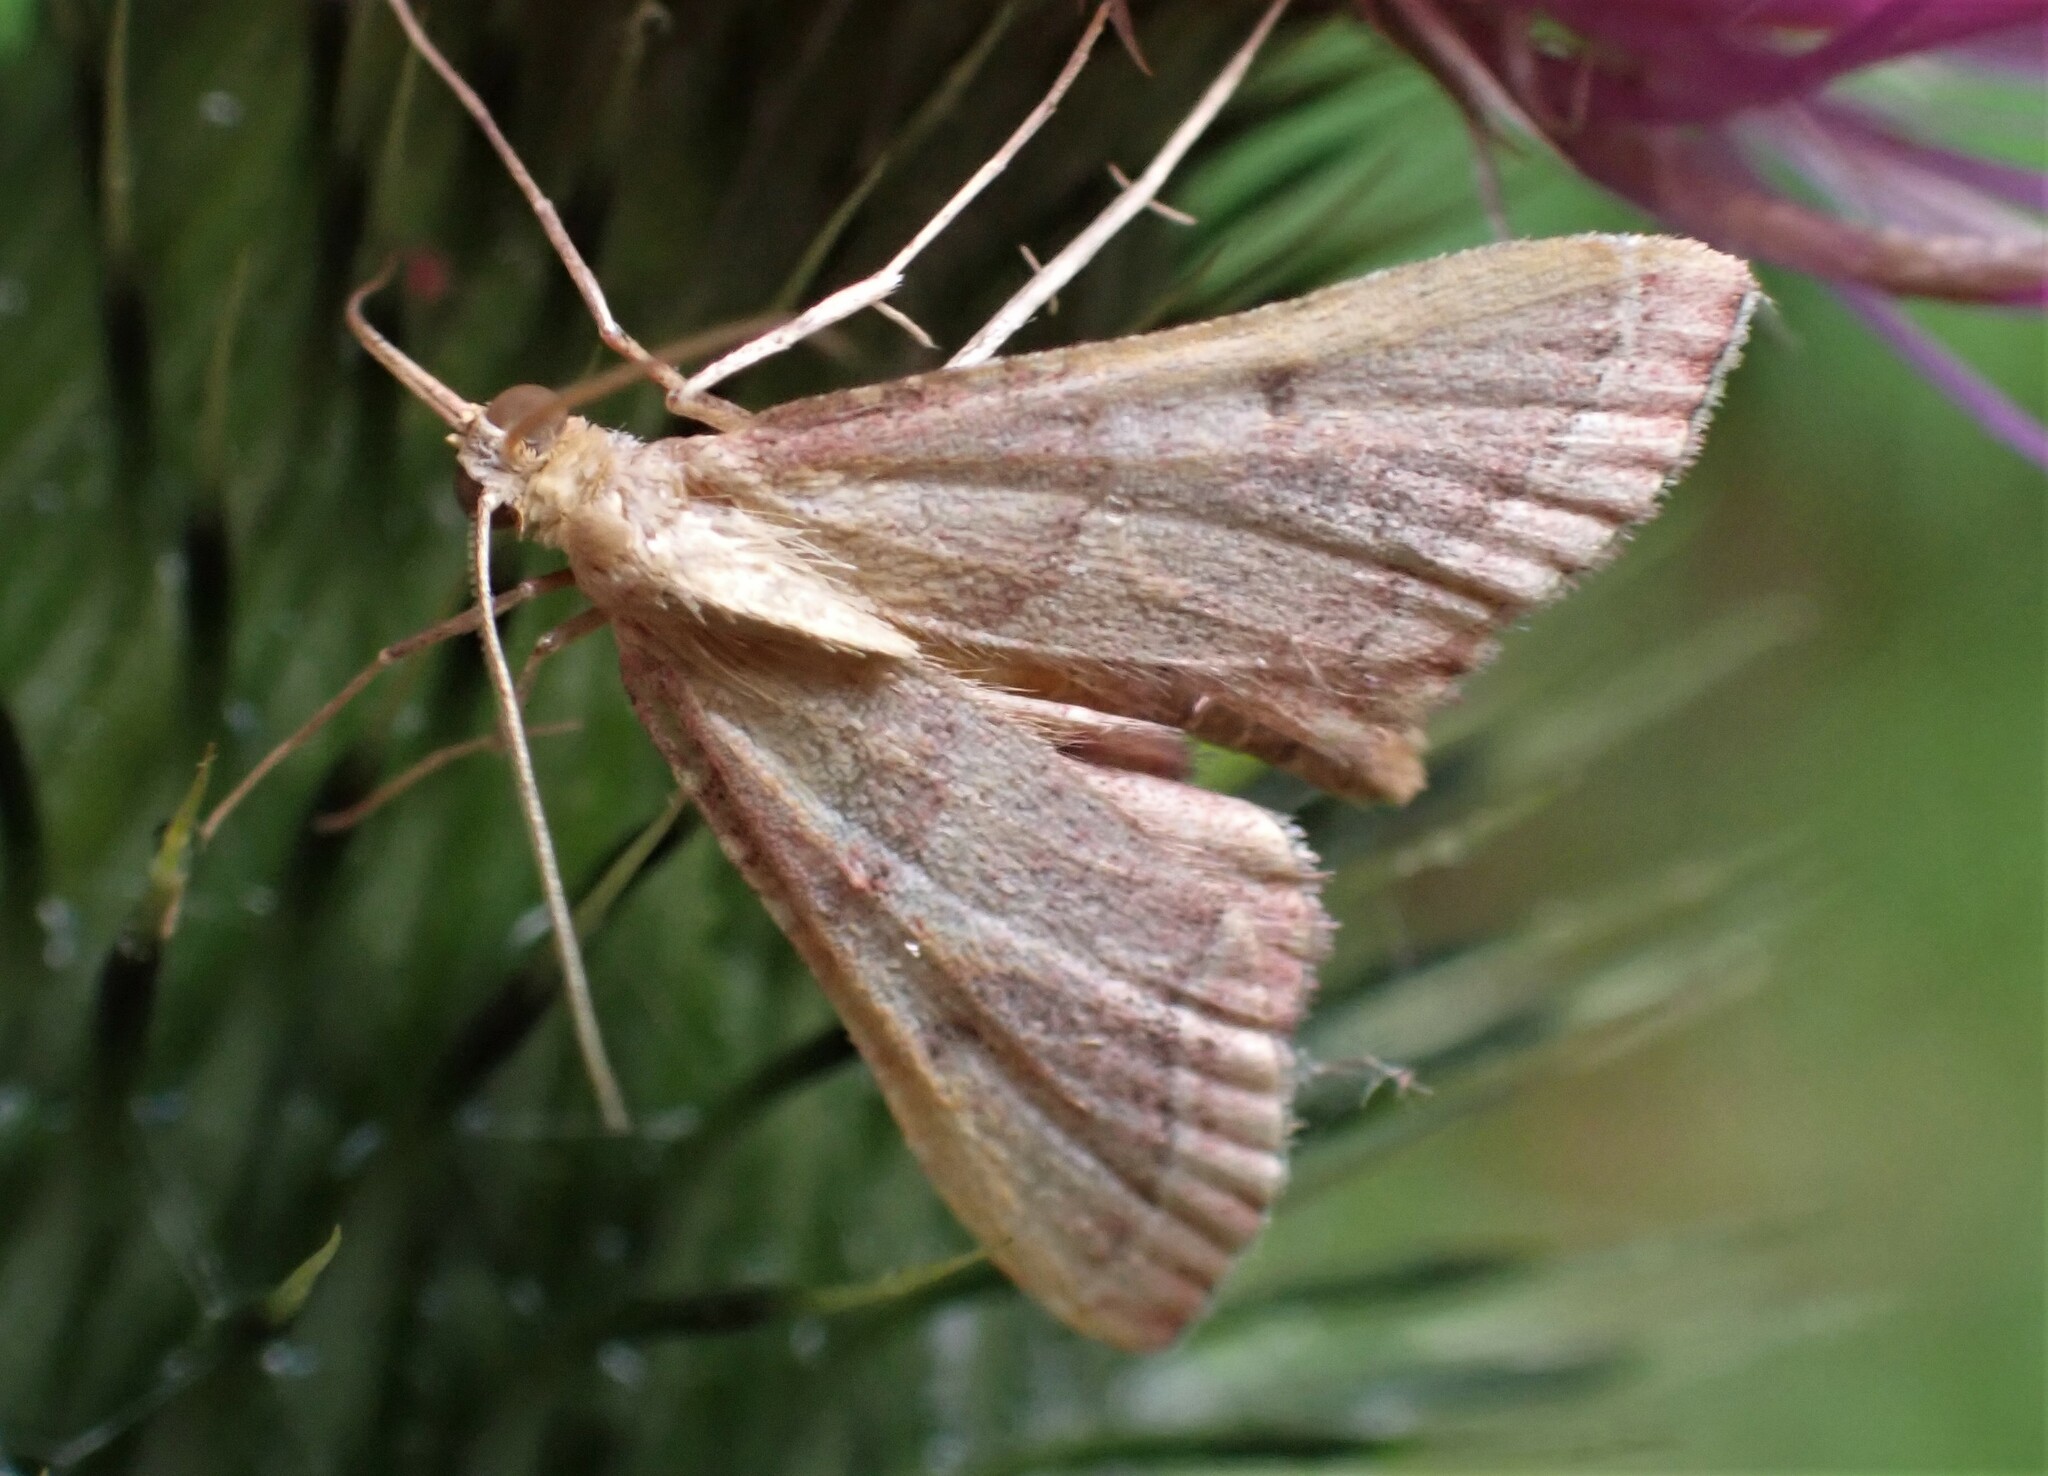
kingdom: Animalia
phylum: Arthropoda
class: Insecta
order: Lepidoptera
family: Pyralidae
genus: Endotricha
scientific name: Endotricha flammealis
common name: Rosy tabby
